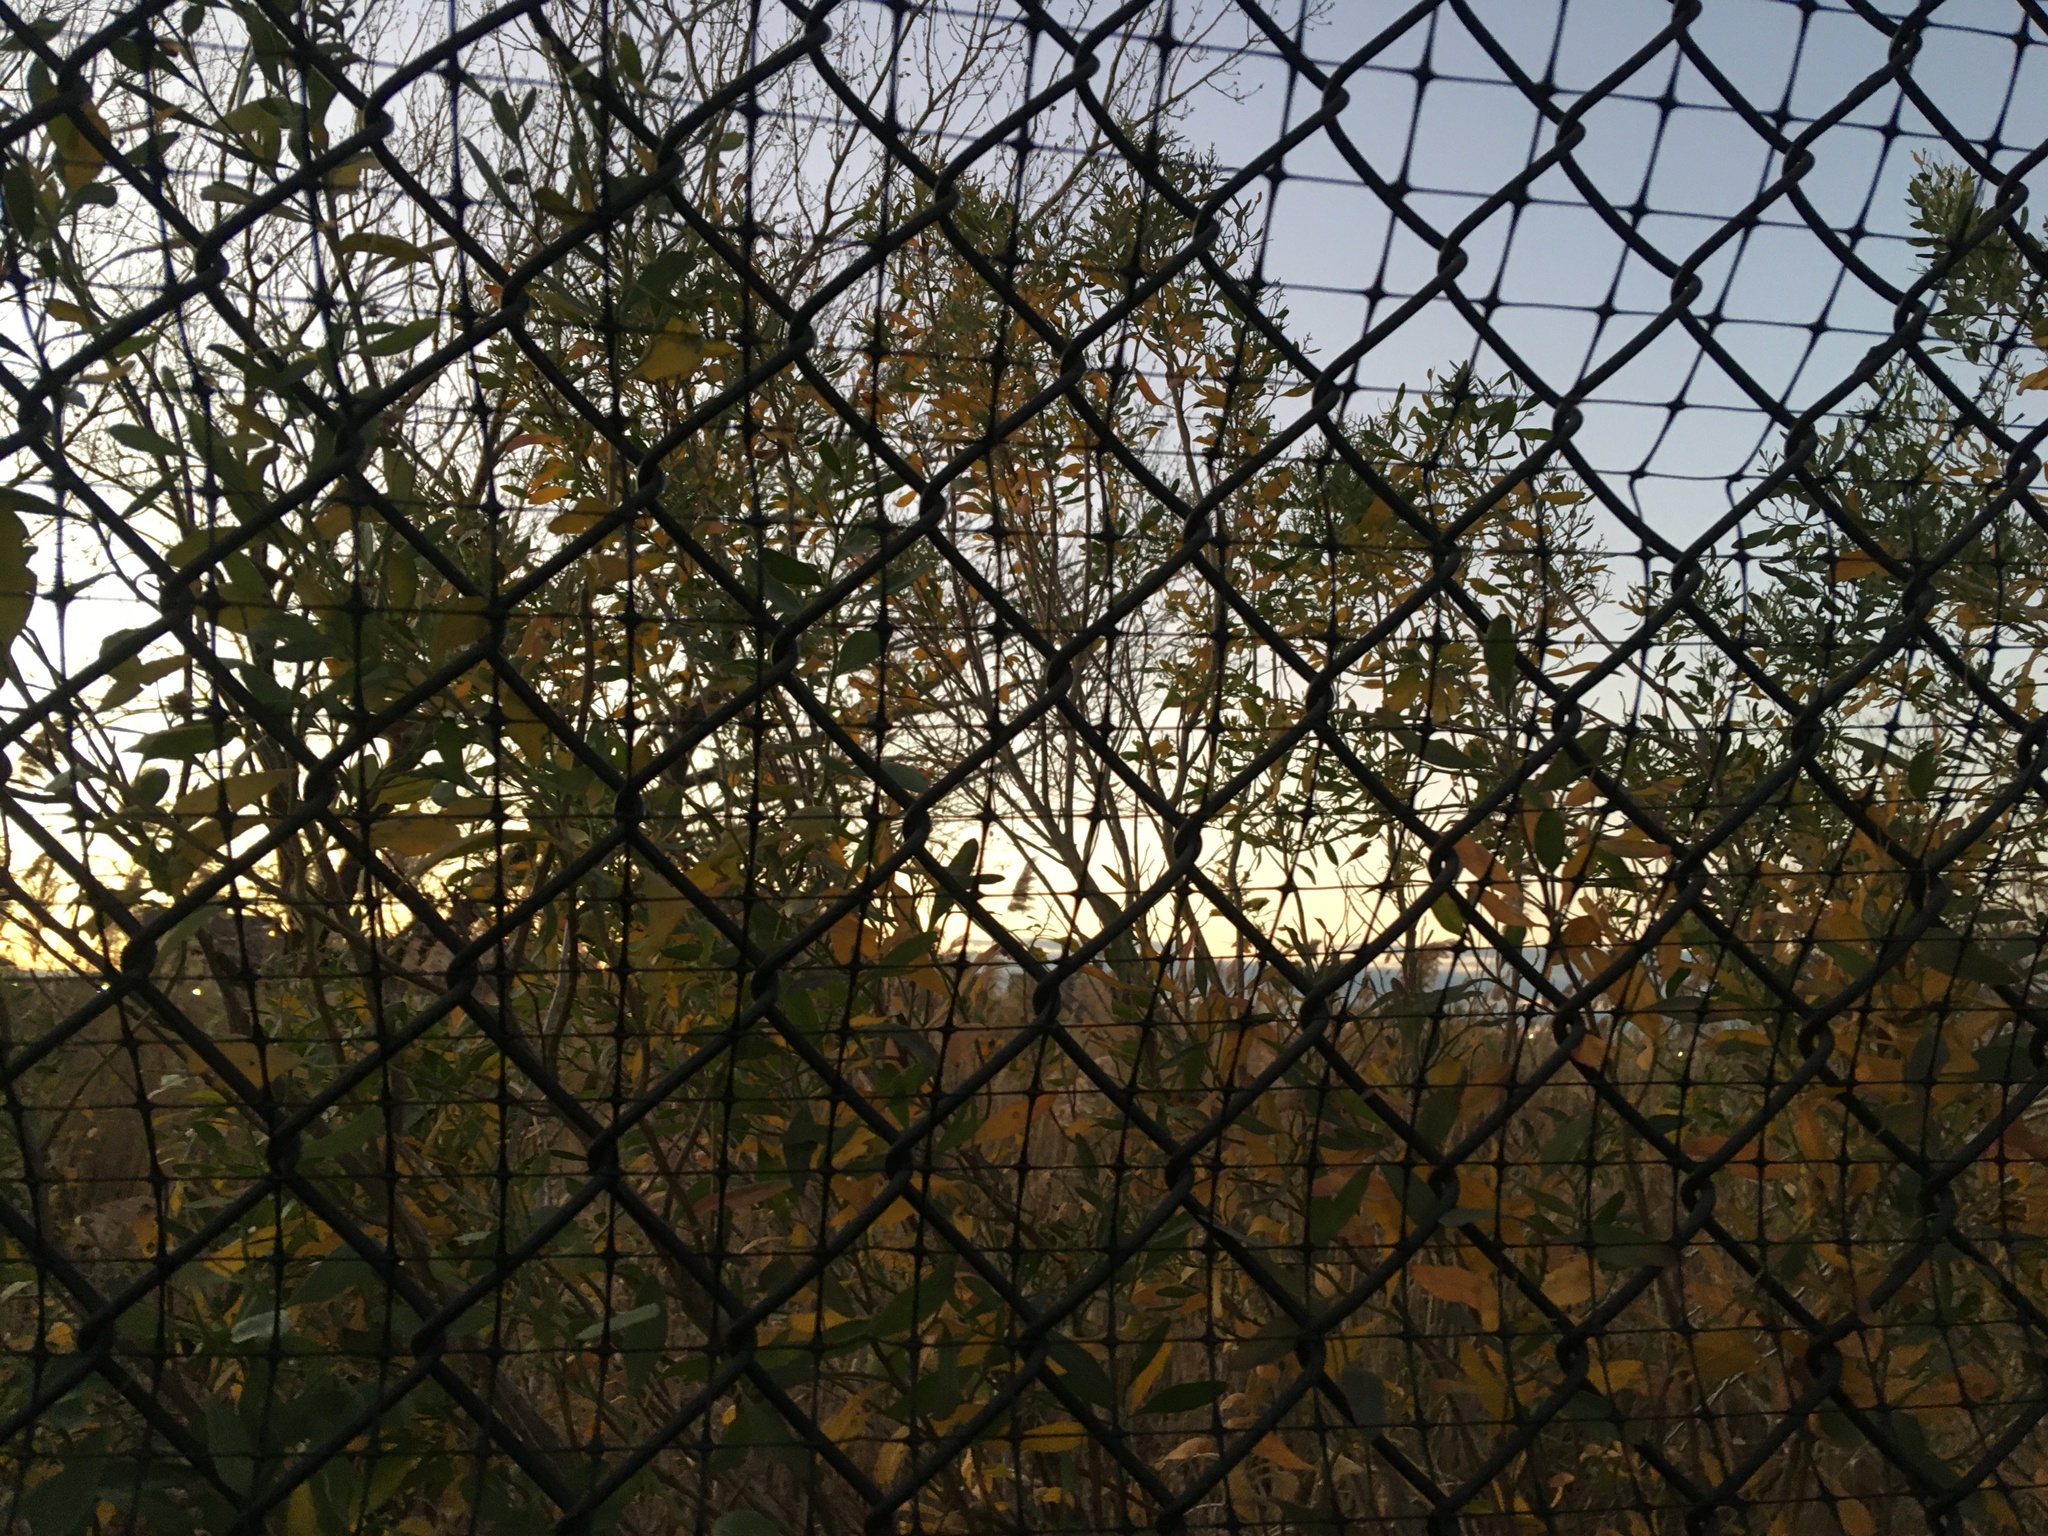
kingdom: Plantae
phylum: Tracheophyta
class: Magnoliopsida
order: Asterales
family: Asteraceae
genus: Baccharis
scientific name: Baccharis halimifolia
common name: Eastern baccharis
